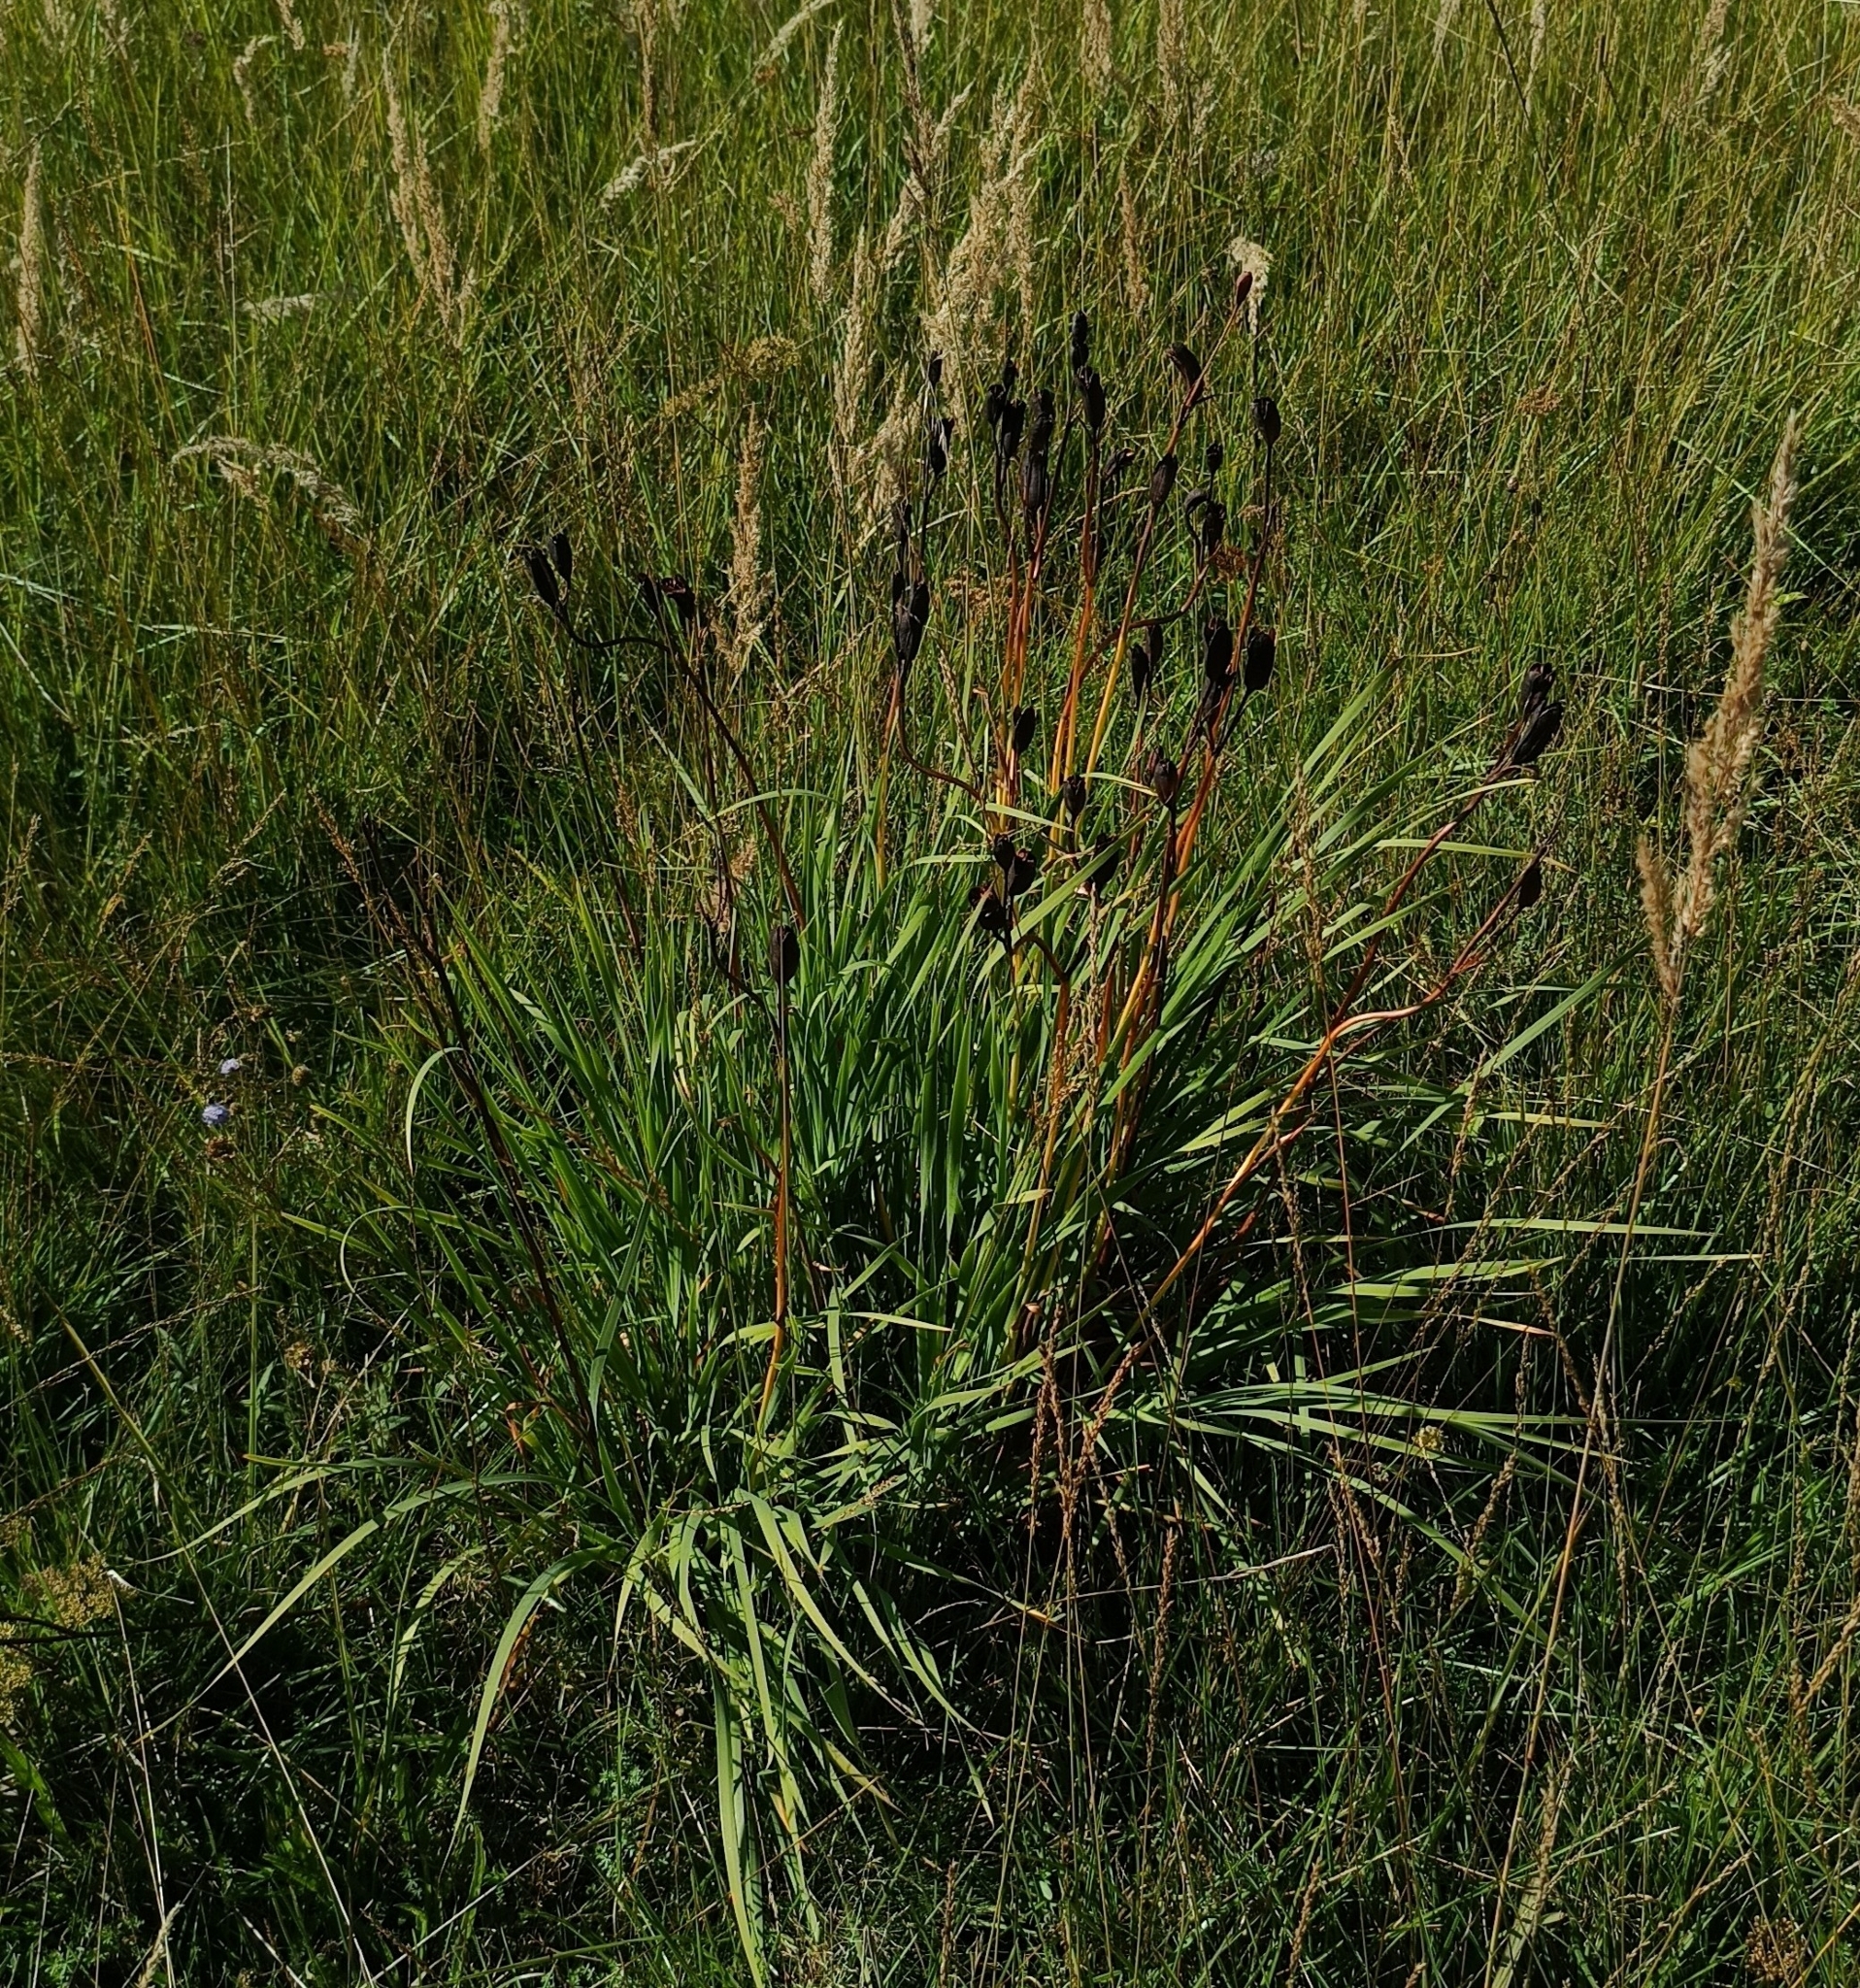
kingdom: Plantae
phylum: Tracheophyta
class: Liliopsida
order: Asparagales
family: Iridaceae
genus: Iris
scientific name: Iris sibirica
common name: Siberian iris
